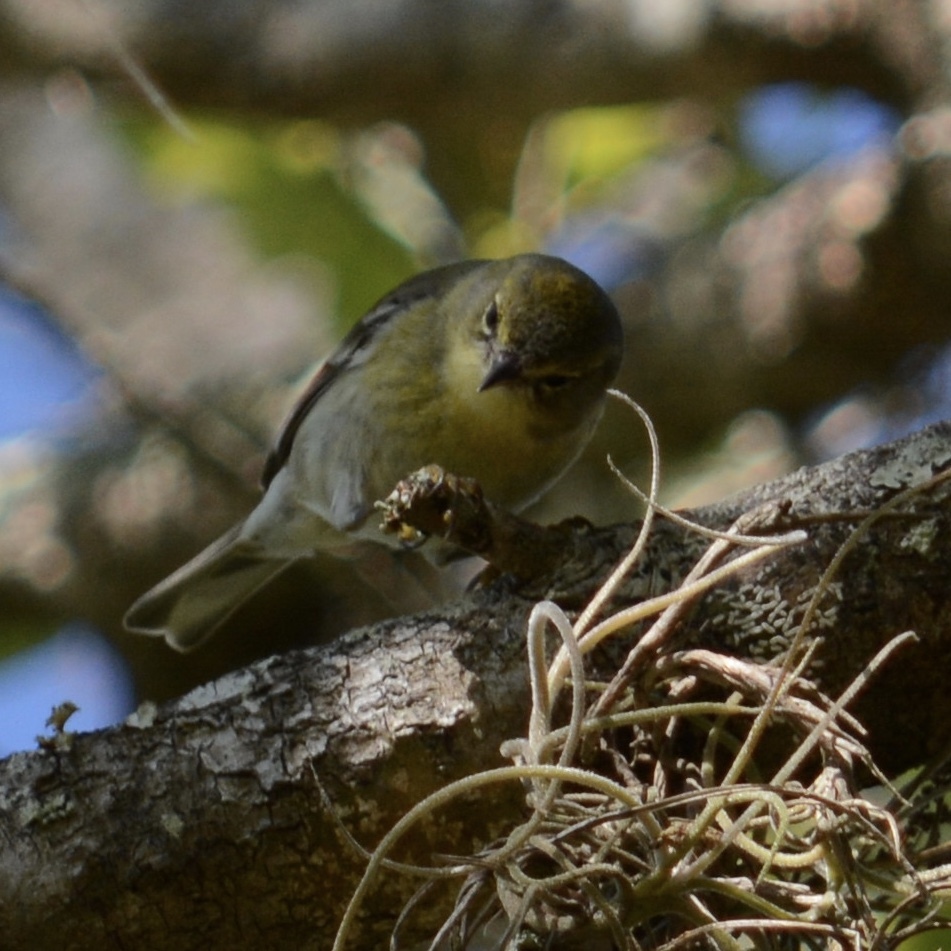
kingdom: Animalia
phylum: Chordata
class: Aves
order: Passeriformes
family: Parulidae
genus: Setophaga
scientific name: Setophaga pinus
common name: Pine warbler
